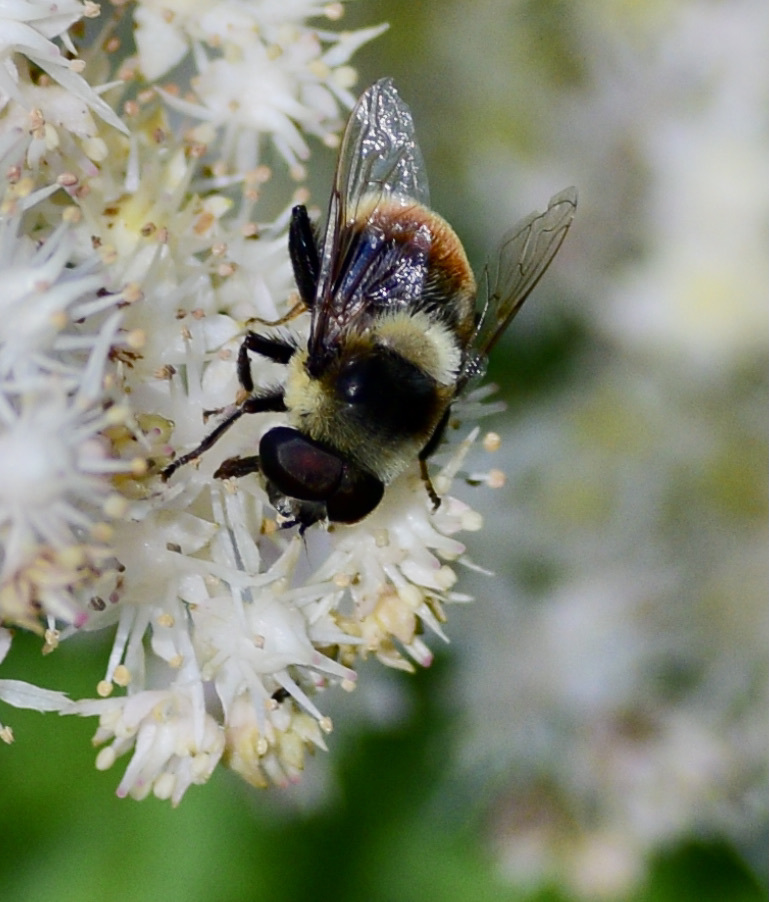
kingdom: Animalia
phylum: Arthropoda
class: Insecta
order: Diptera
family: Syrphidae
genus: Eristalis
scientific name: Eristalis flavipes
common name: Orange-legged drone fly
